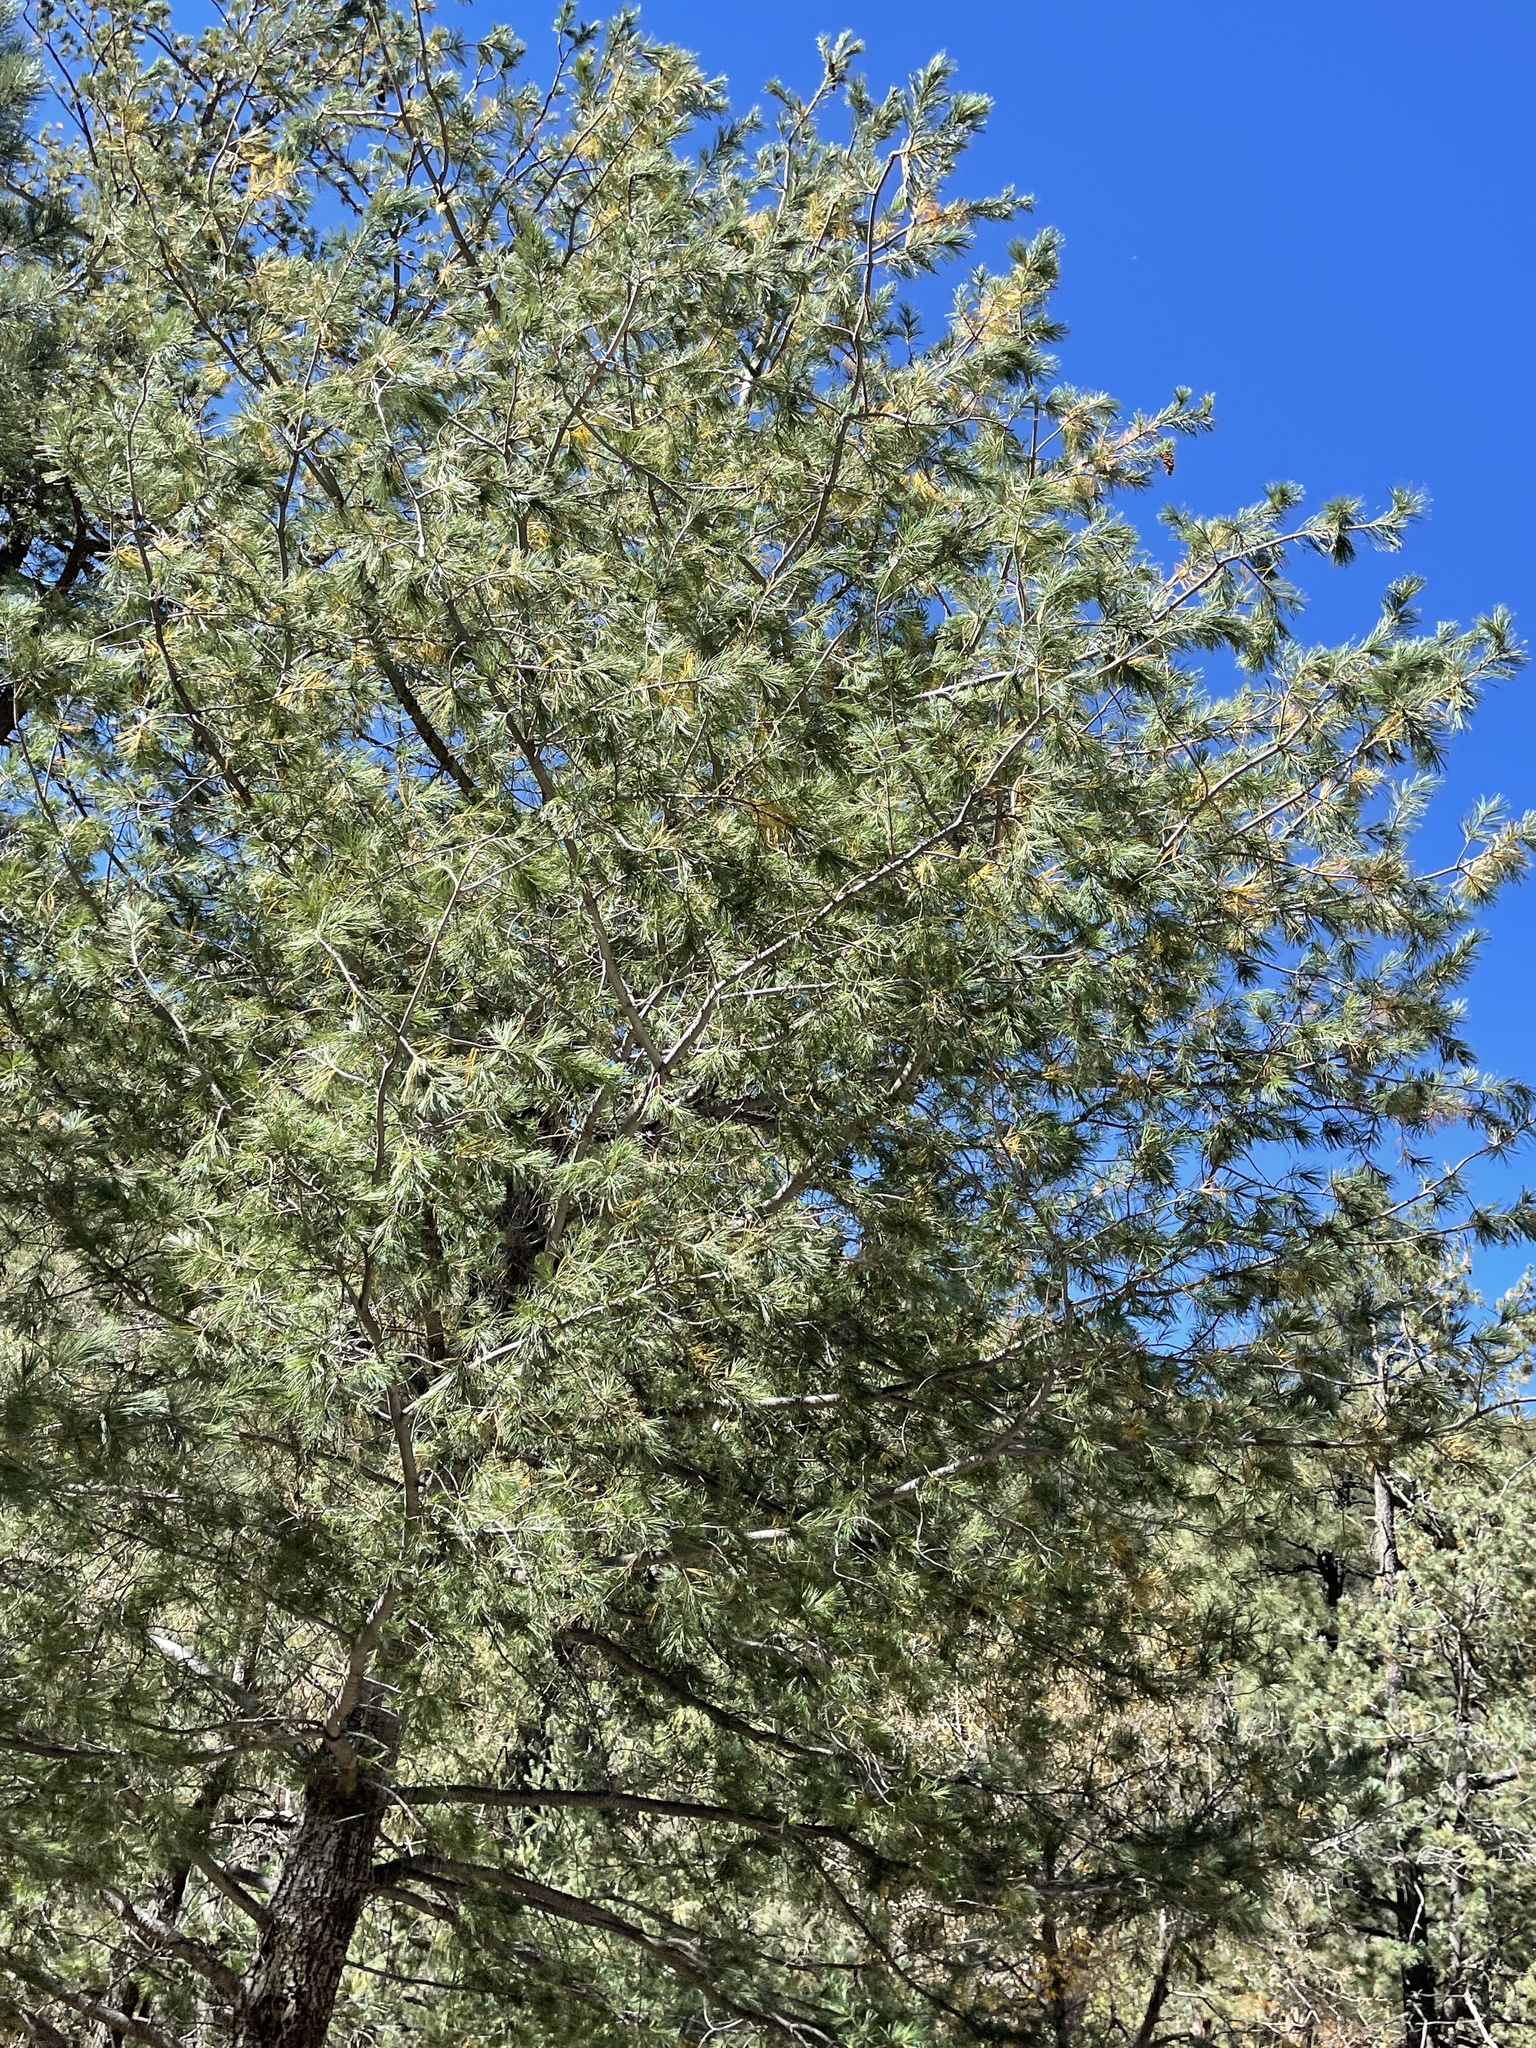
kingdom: Plantae
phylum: Tracheophyta
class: Pinopsida
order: Pinales
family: Pinaceae
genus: Pinus
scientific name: Pinus strobiformis
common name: Southwestern white pine
